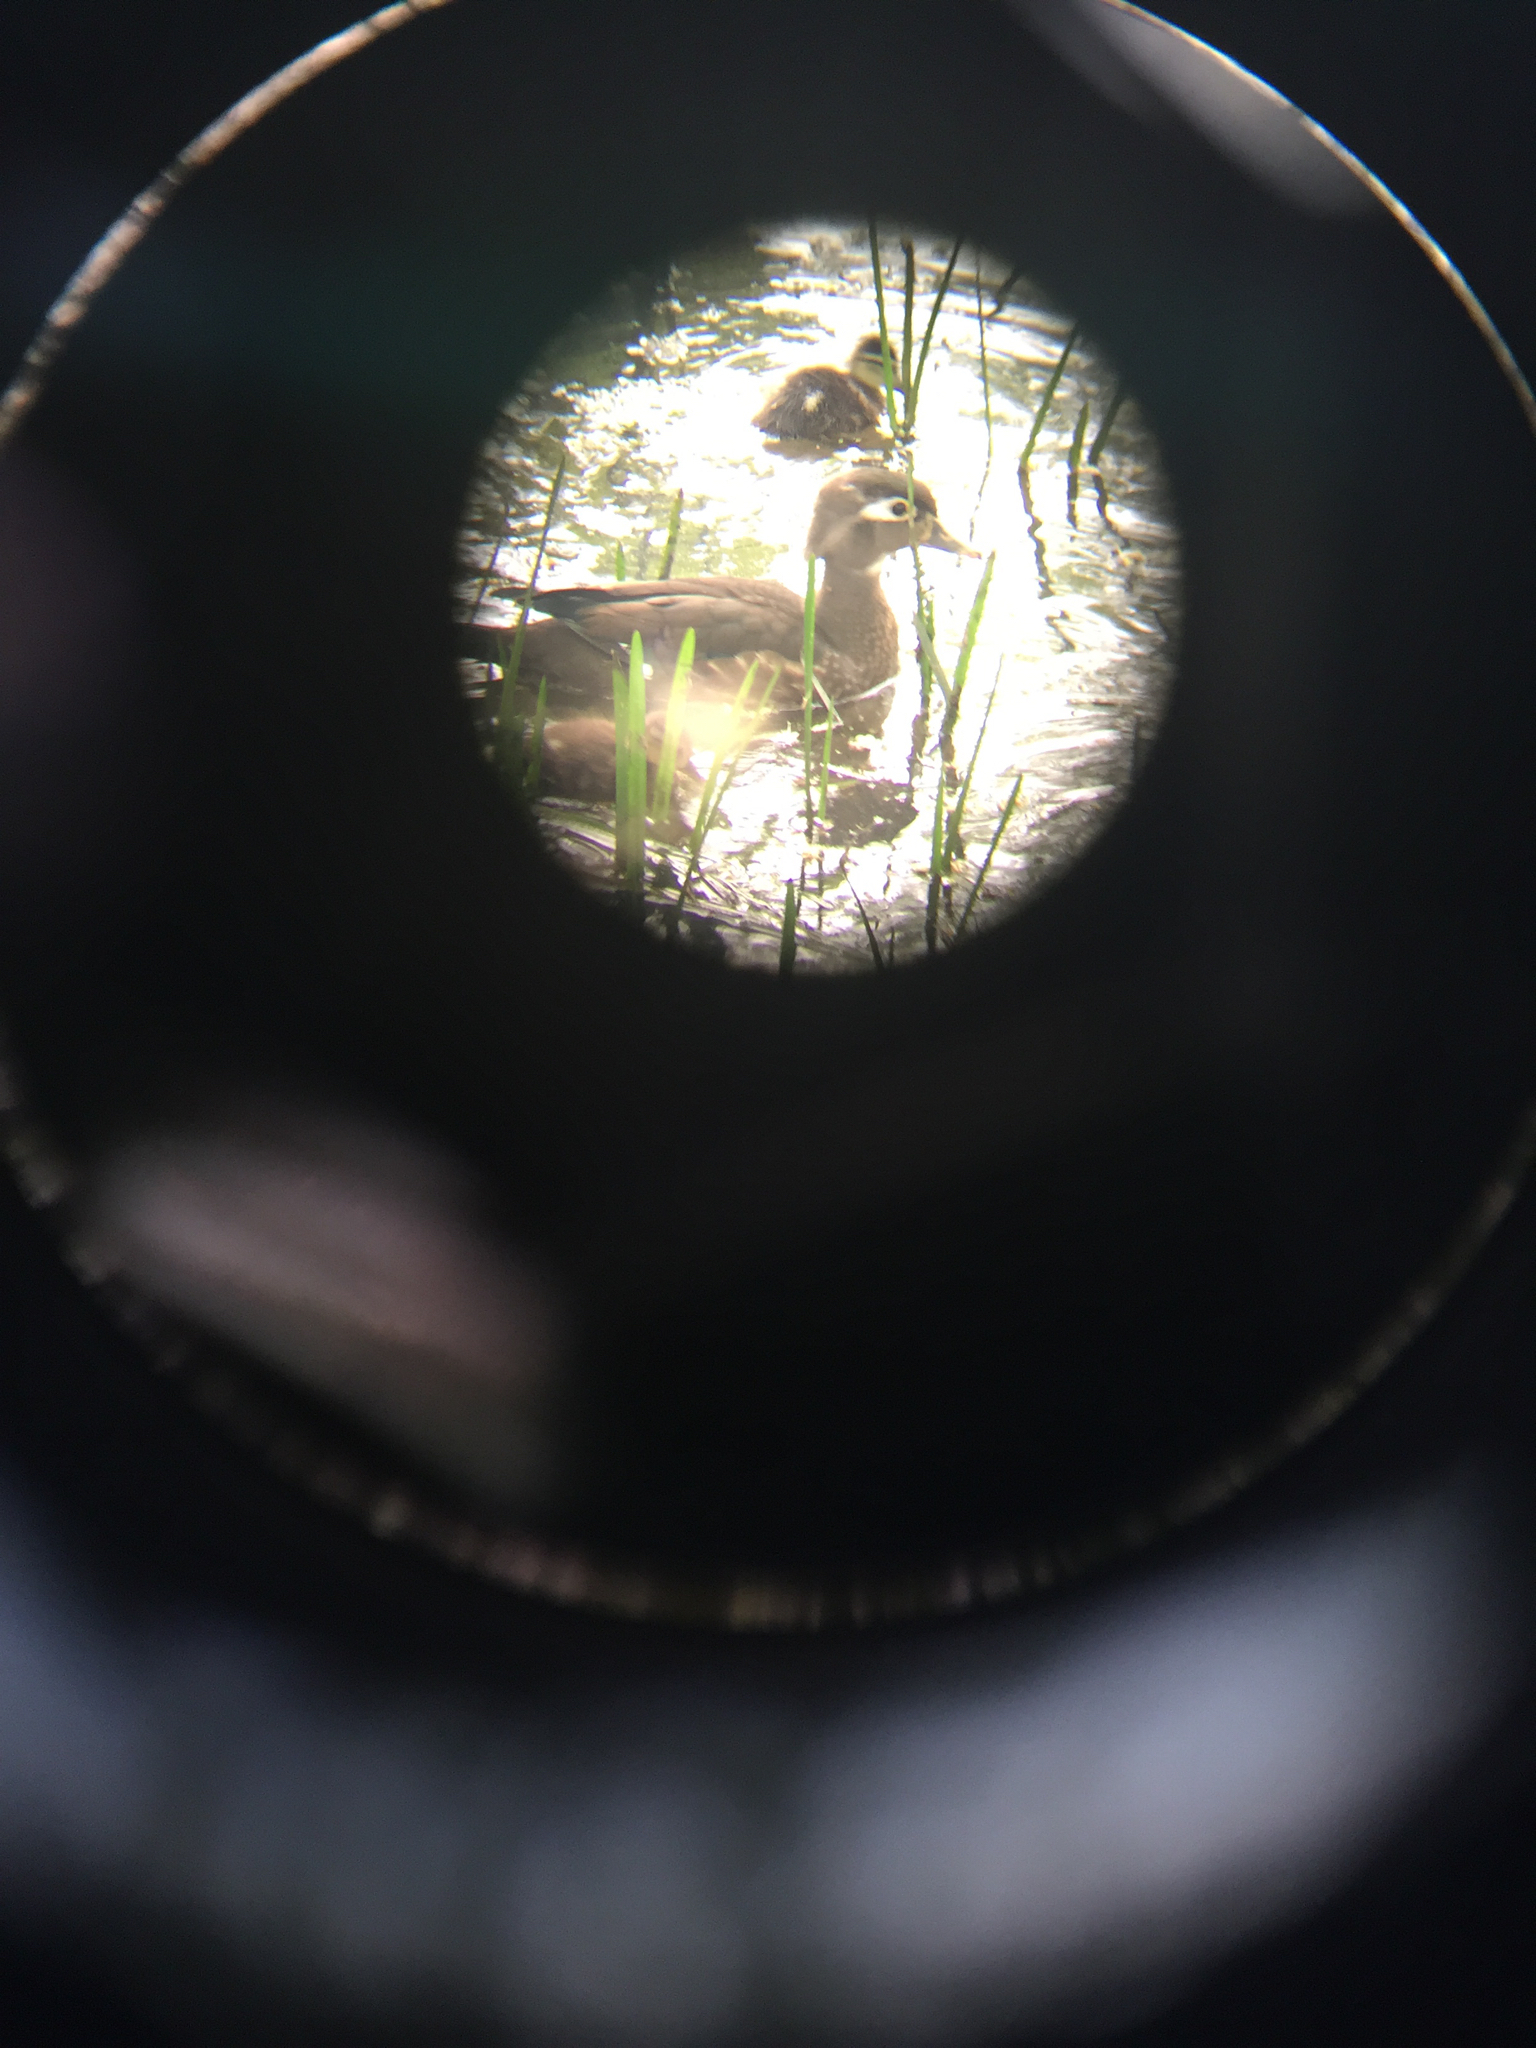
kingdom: Animalia
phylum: Chordata
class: Aves
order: Anseriformes
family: Anatidae
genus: Aix
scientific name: Aix sponsa
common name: Wood duck
